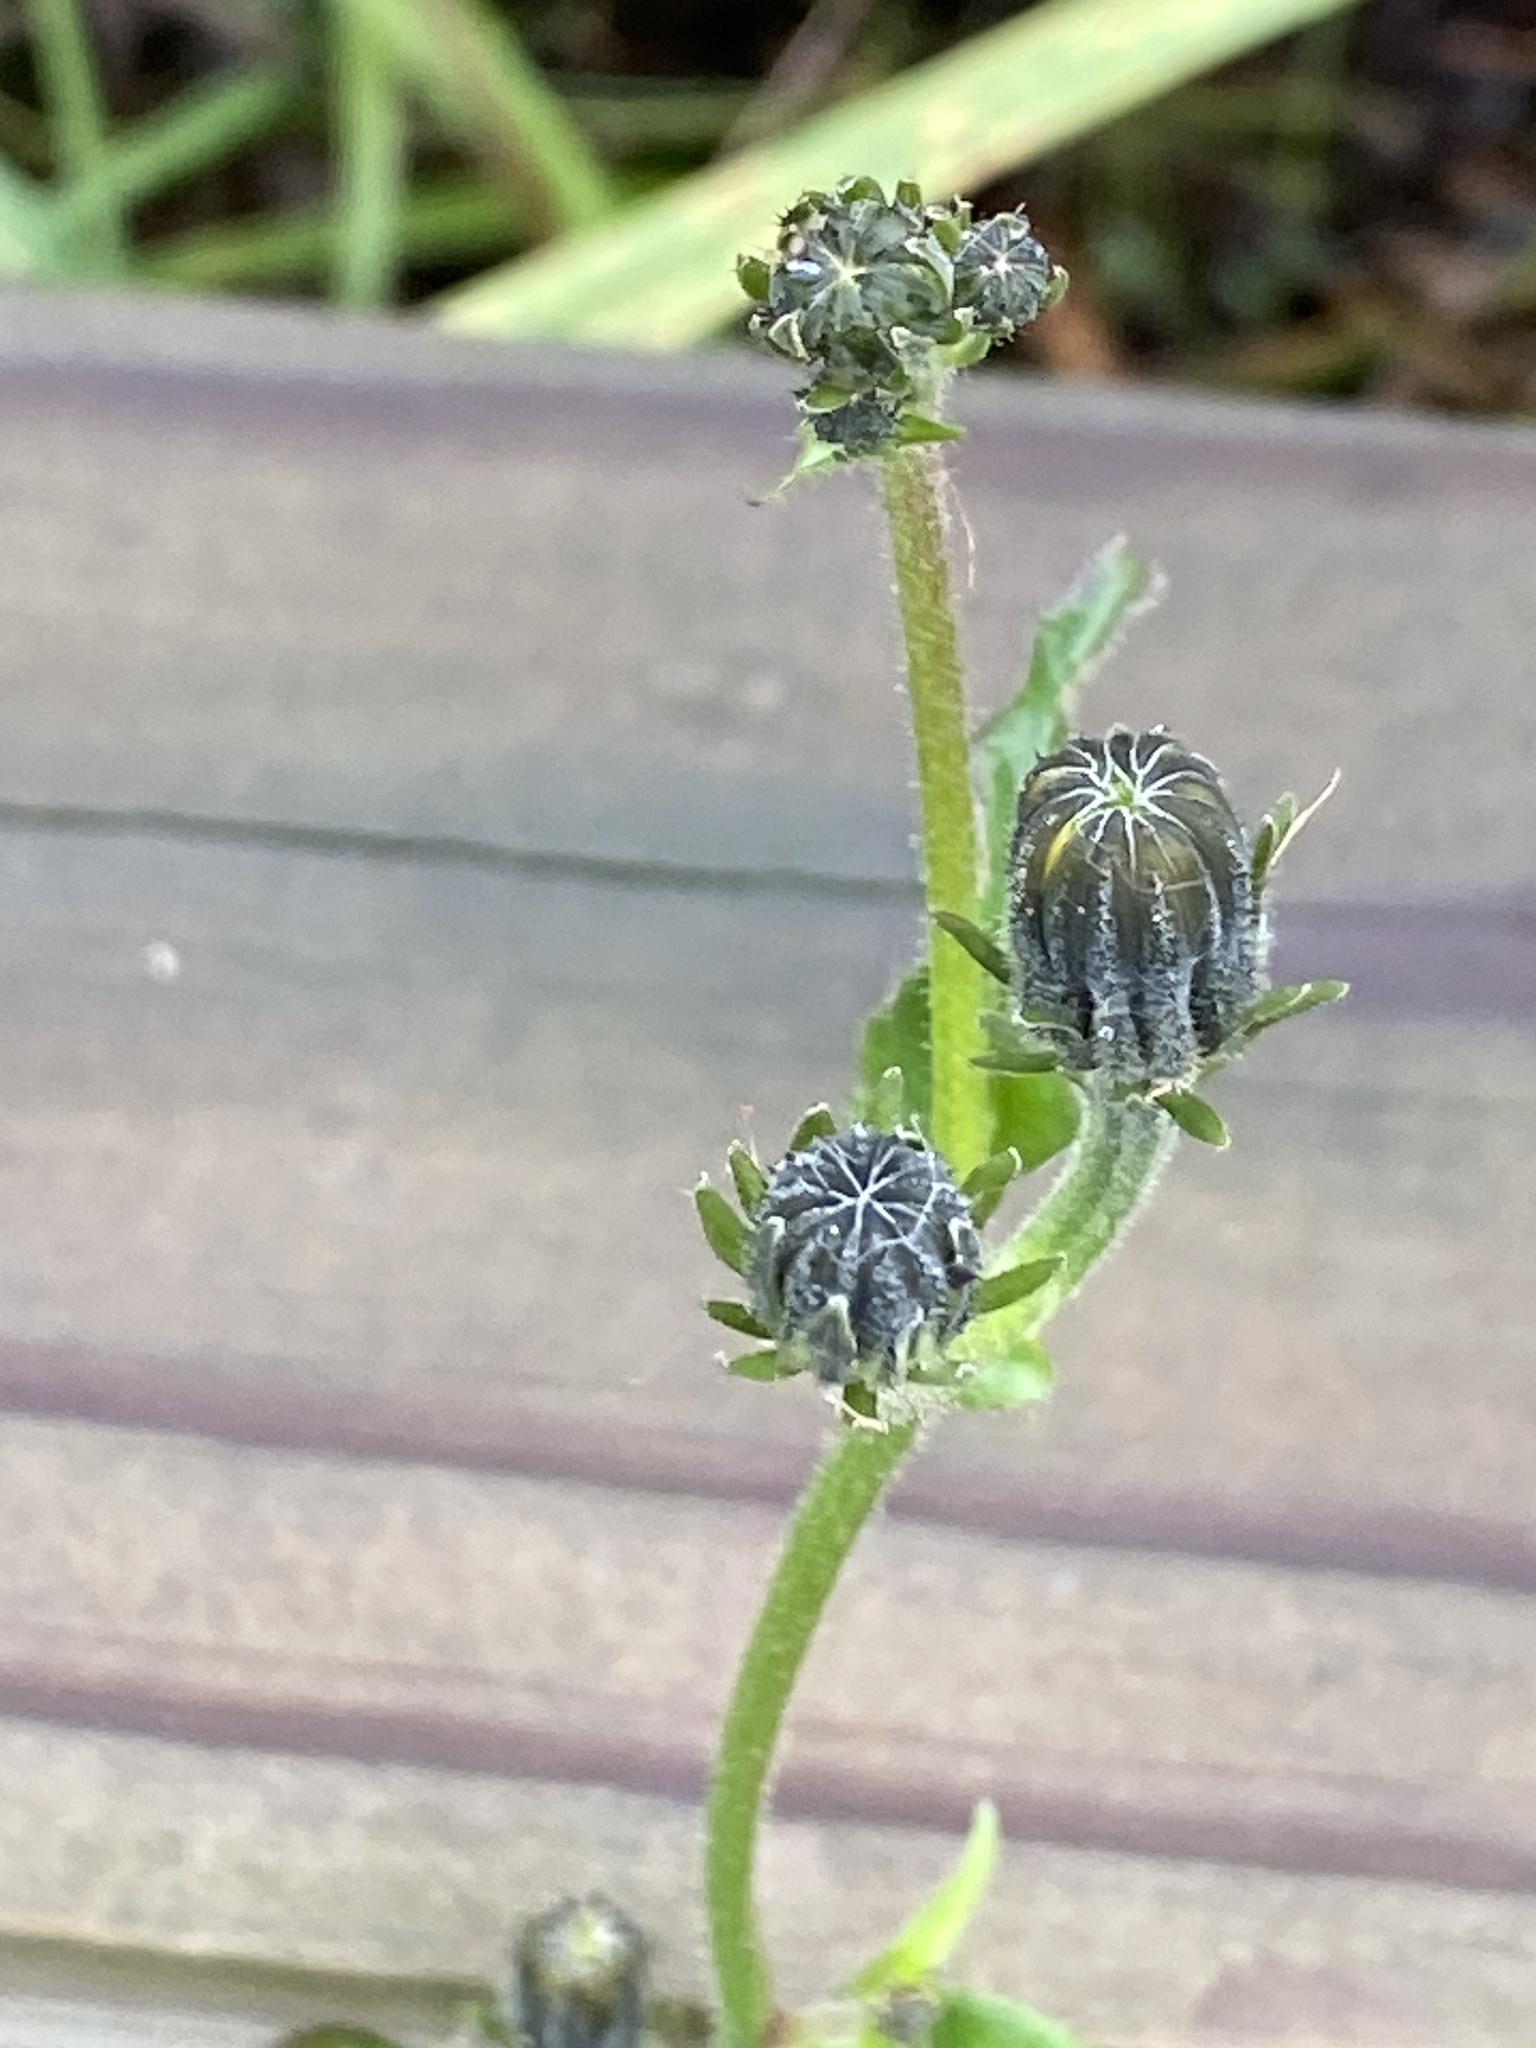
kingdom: Plantae
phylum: Tracheophyta
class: Magnoliopsida
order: Asterales
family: Asteraceae
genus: Picris
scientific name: Picris hieracioides
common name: Hawkweed oxtongue
